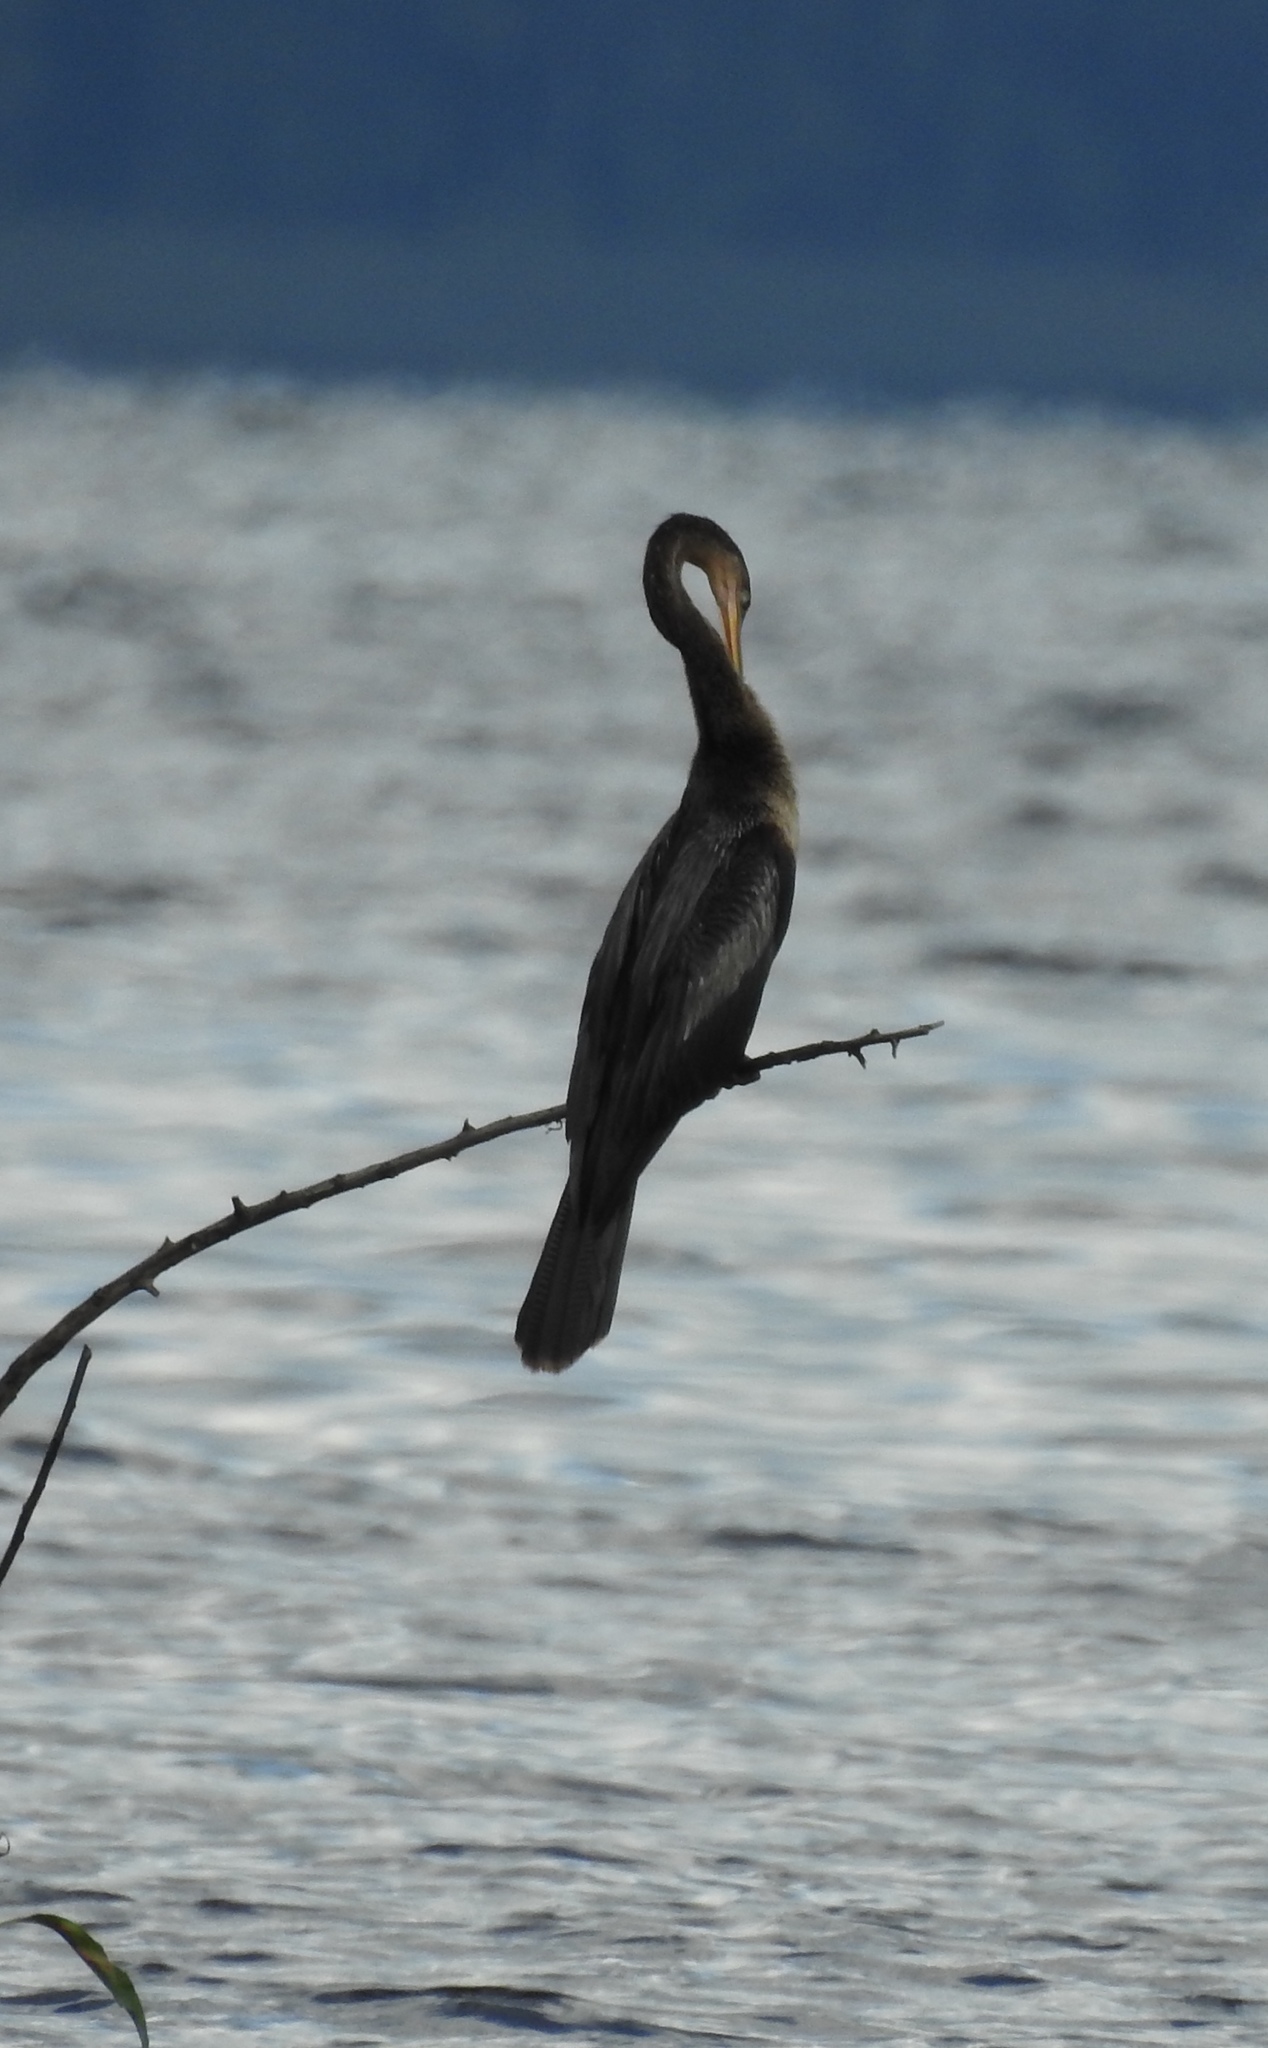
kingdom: Animalia
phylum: Chordata
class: Aves
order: Suliformes
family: Anhingidae
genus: Anhinga
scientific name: Anhinga anhinga
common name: Anhinga
